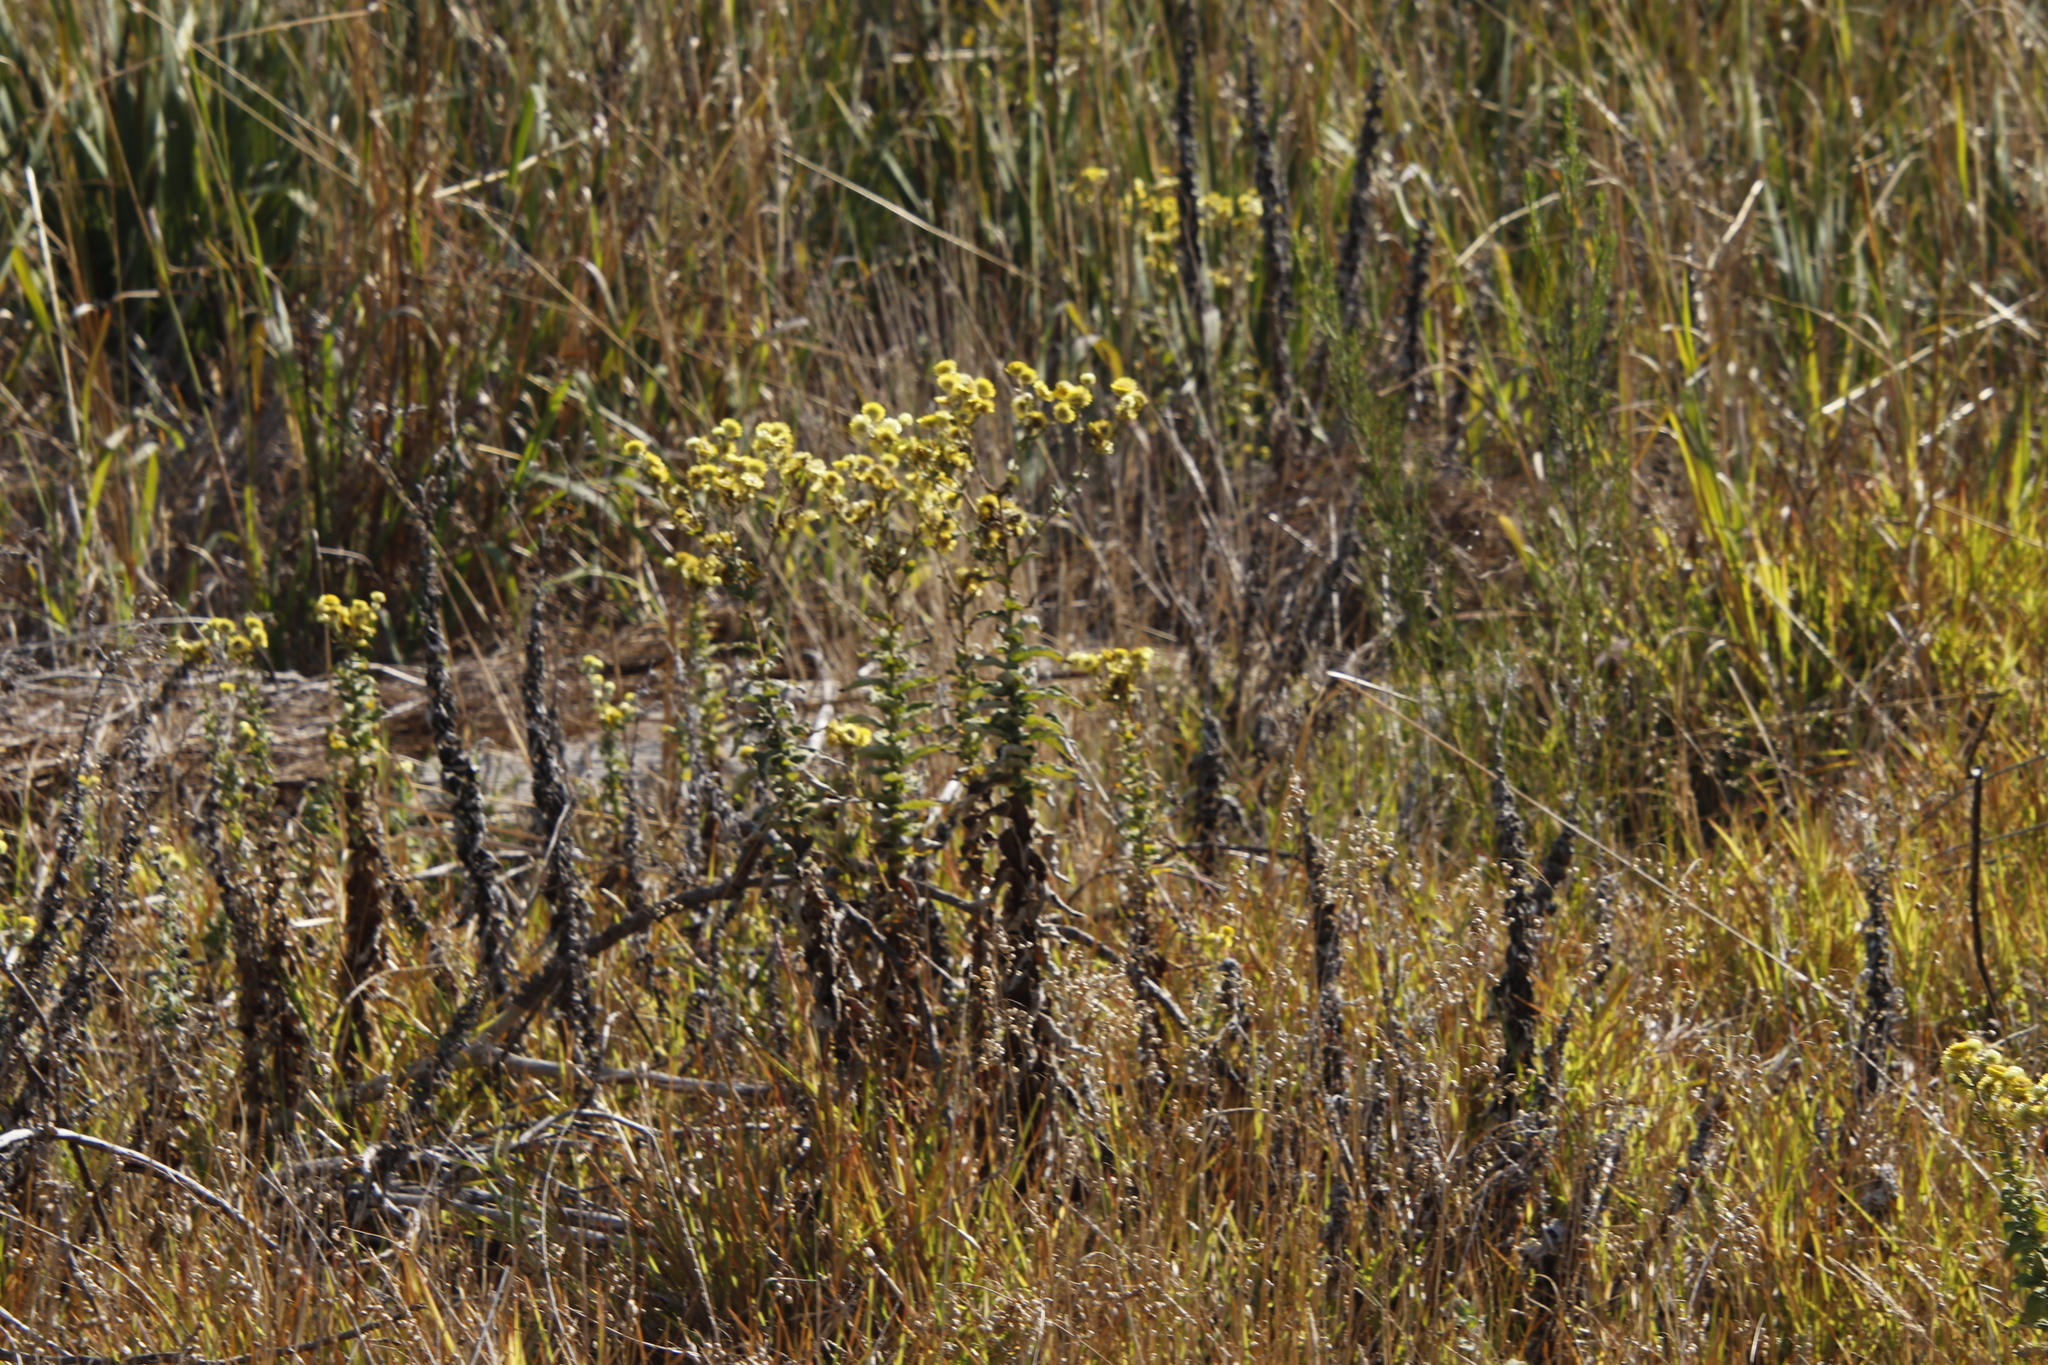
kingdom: Plantae
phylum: Tracheophyta
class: Magnoliopsida
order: Asterales
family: Asteraceae
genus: Helichrysum
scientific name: Helichrysum foetidum
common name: Stinking everlasting
